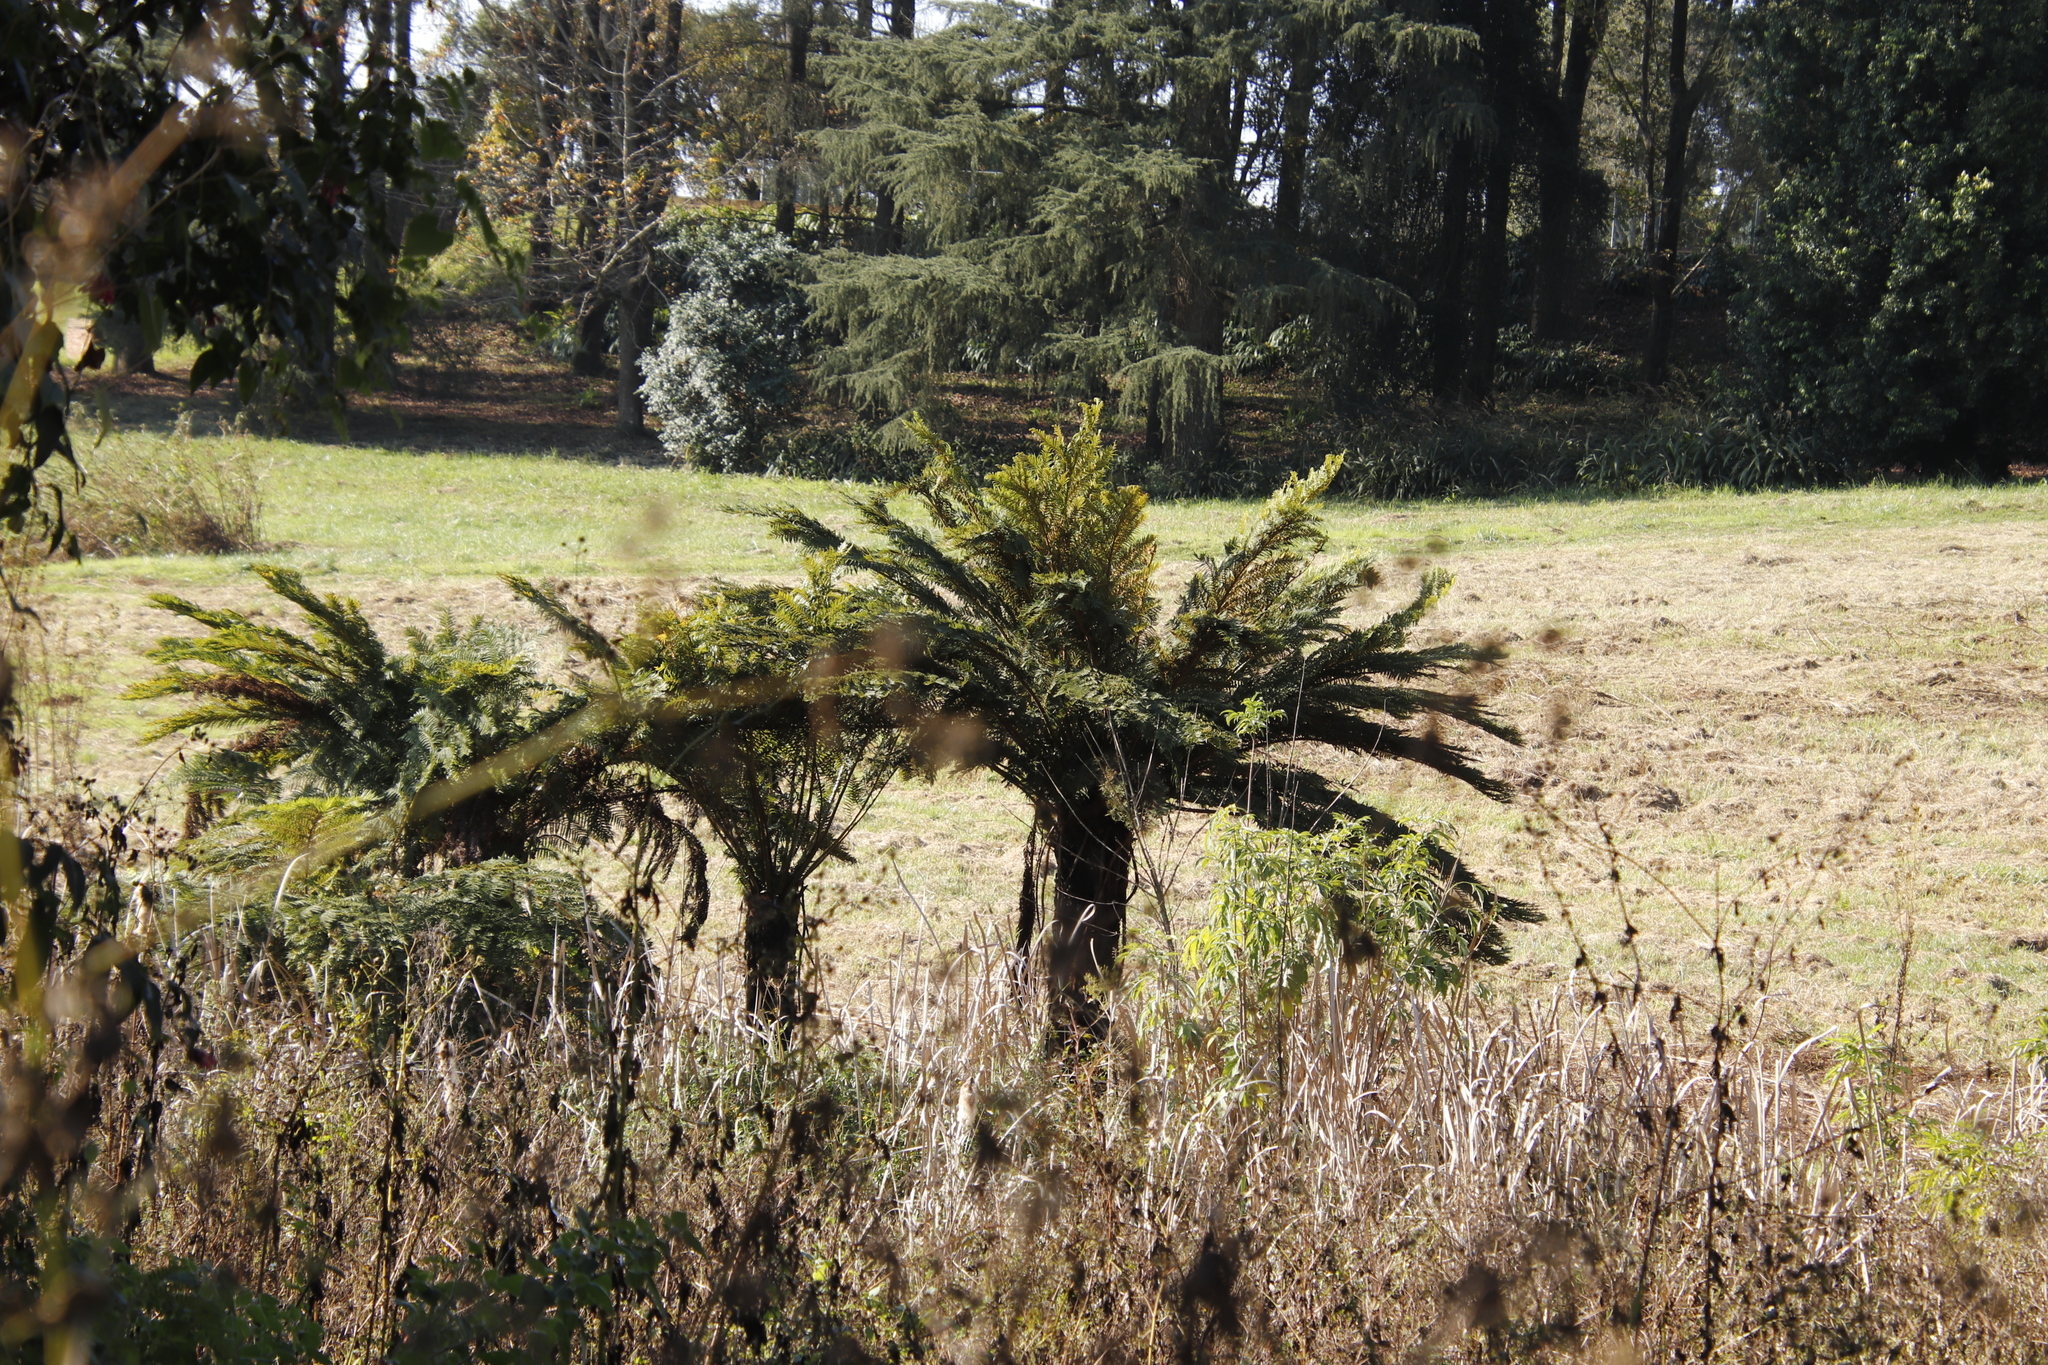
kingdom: Plantae
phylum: Tracheophyta
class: Polypodiopsida
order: Cyatheales
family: Cyatheaceae
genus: Alsophila
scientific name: Alsophila dregei
